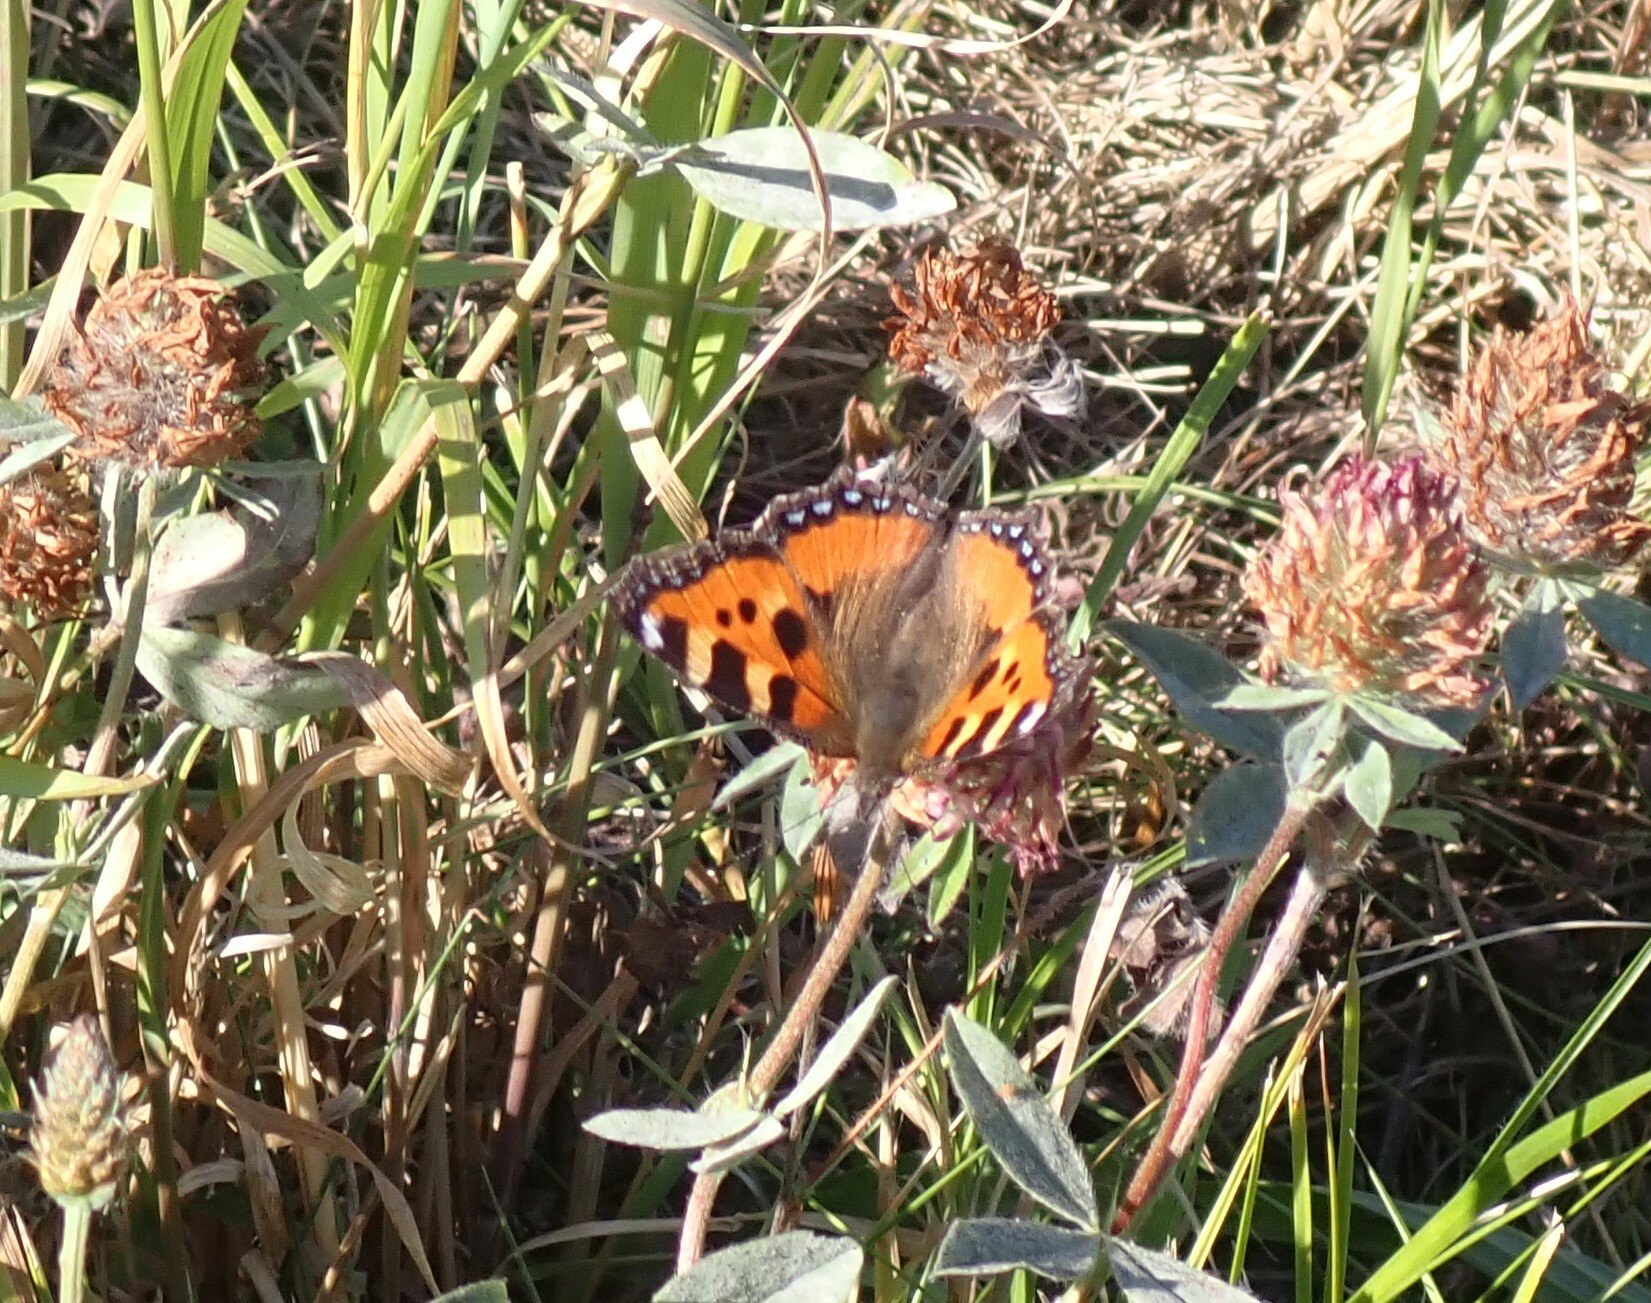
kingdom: Animalia
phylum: Arthropoda
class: Insecta
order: Lepidoptera
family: Nymphalidae
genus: Aglais
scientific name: Aglais urticae
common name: Small tortoiseshell
